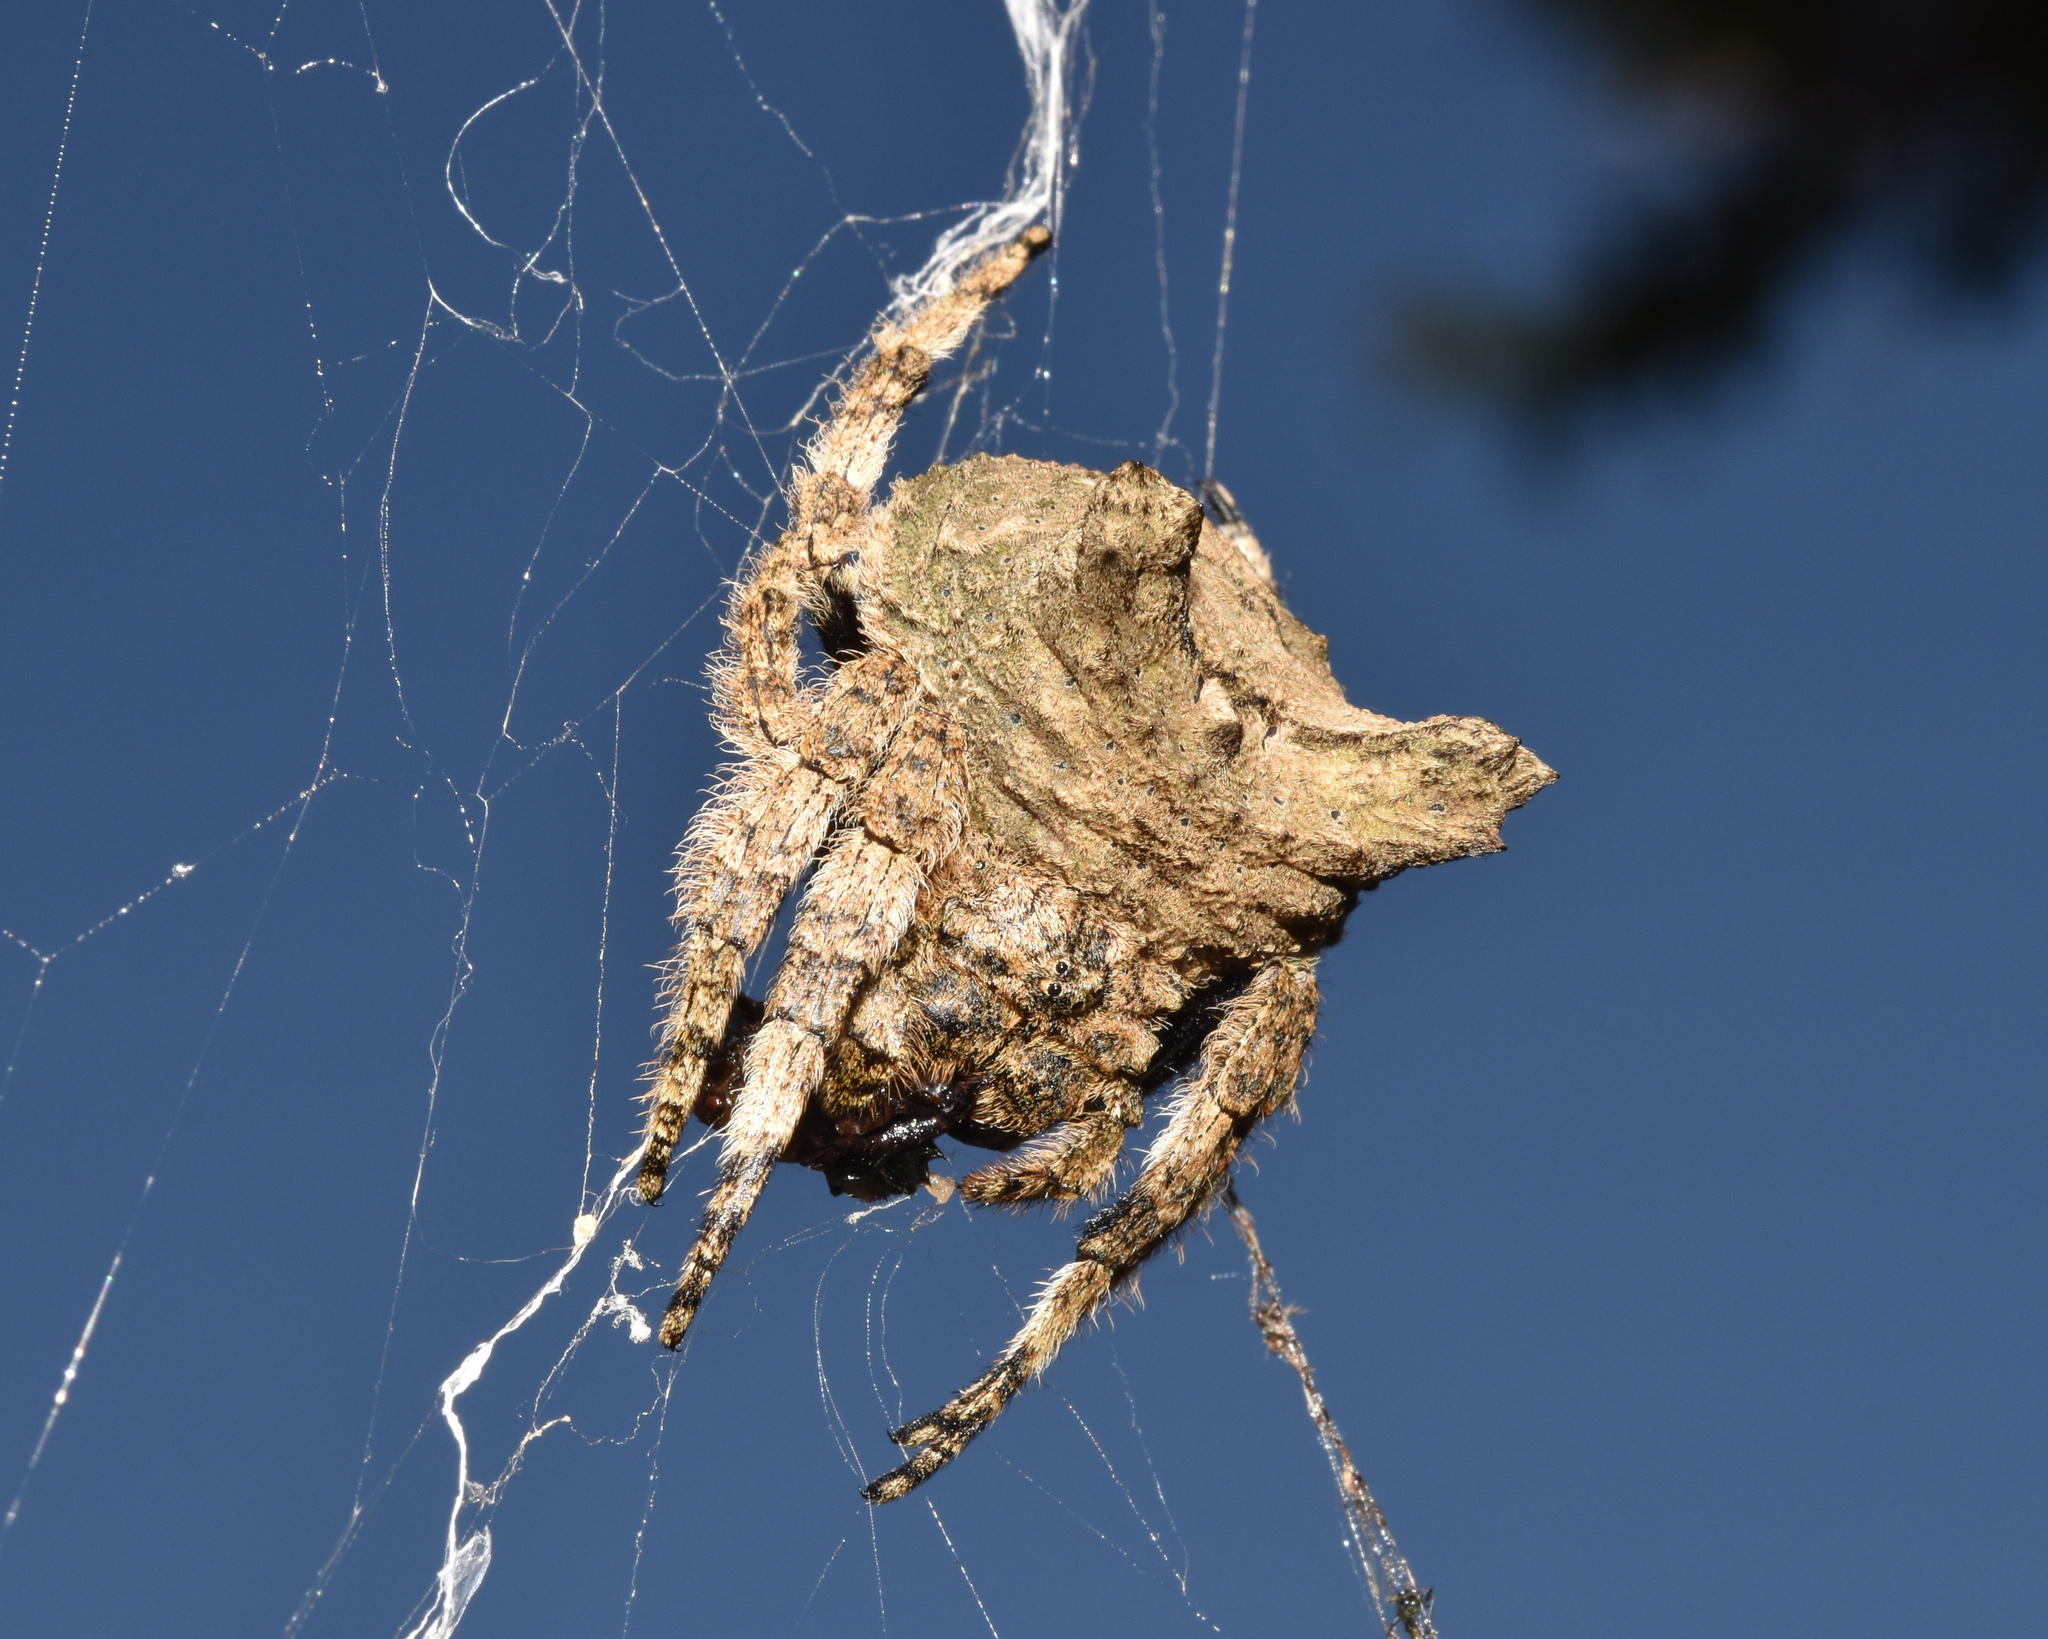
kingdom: Animalia
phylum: Arthropoda
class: Arachnida
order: Araneae
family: Araneidae
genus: Caerostris
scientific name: Caerostris sexcuspidata
